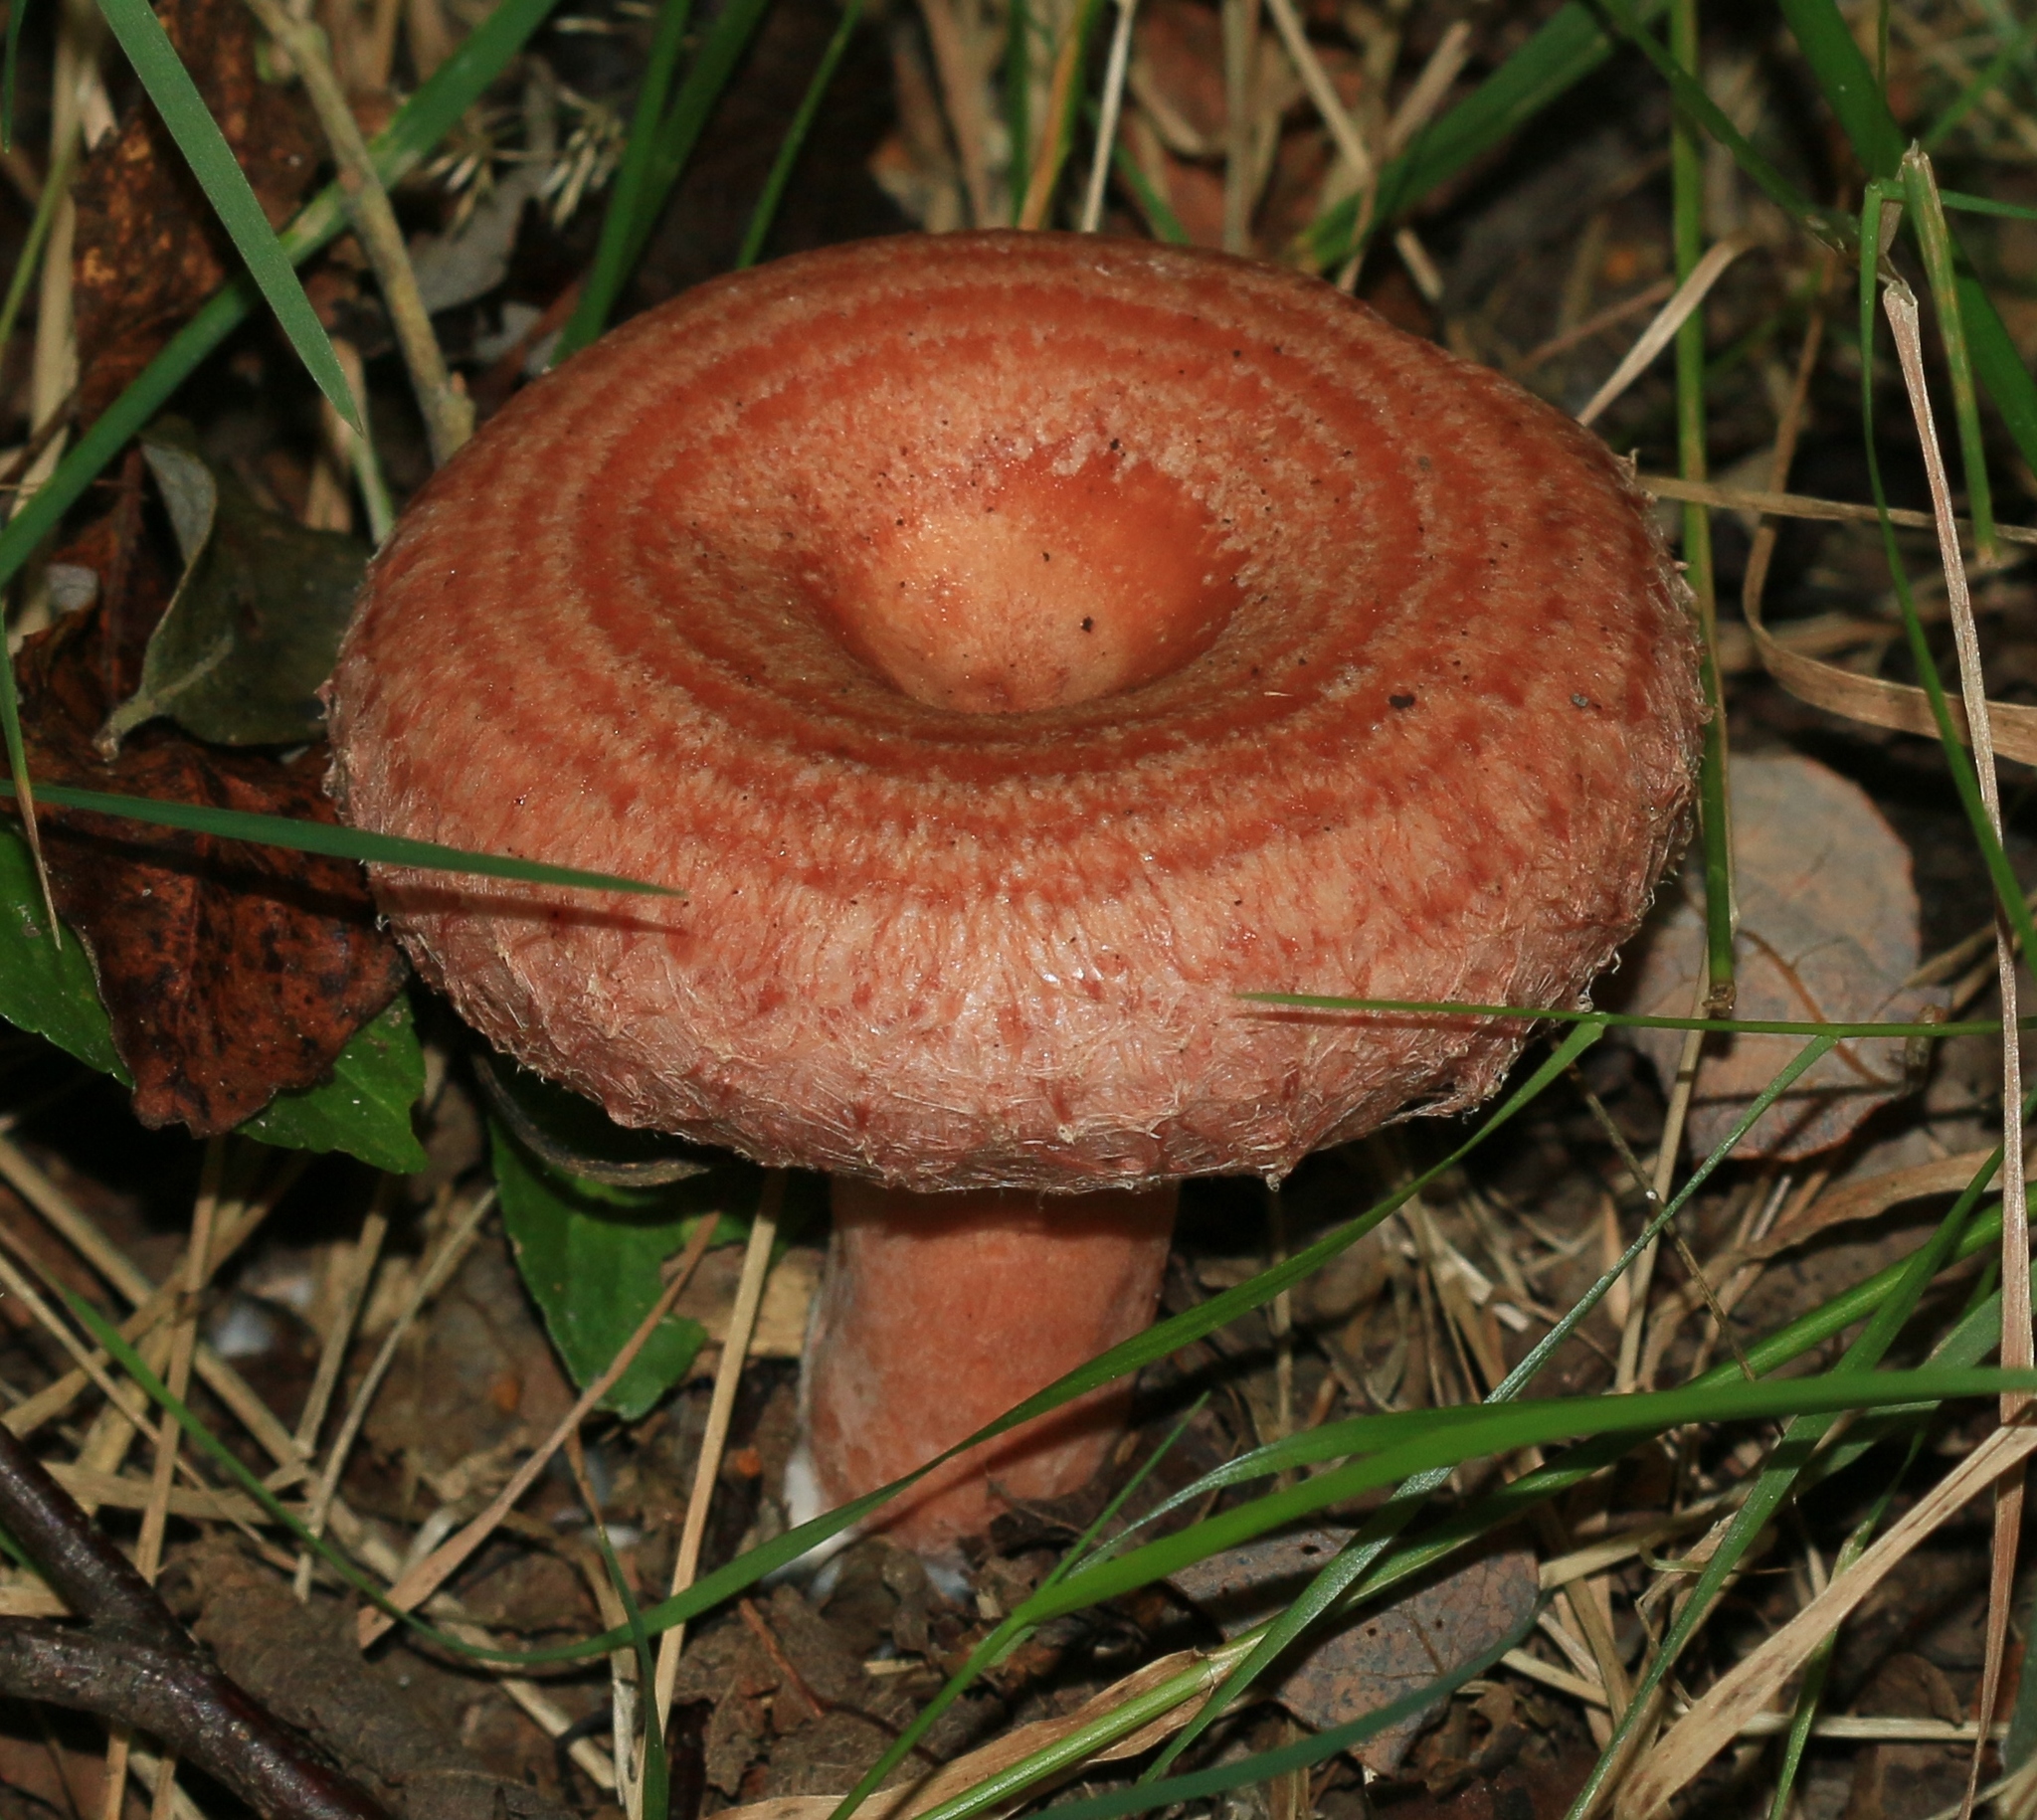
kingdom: Fungi
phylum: Basidiomycota
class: Agaricomycetes
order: Russulales
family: Russulaceae
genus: Lactarius
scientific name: Lactarius torminosus
